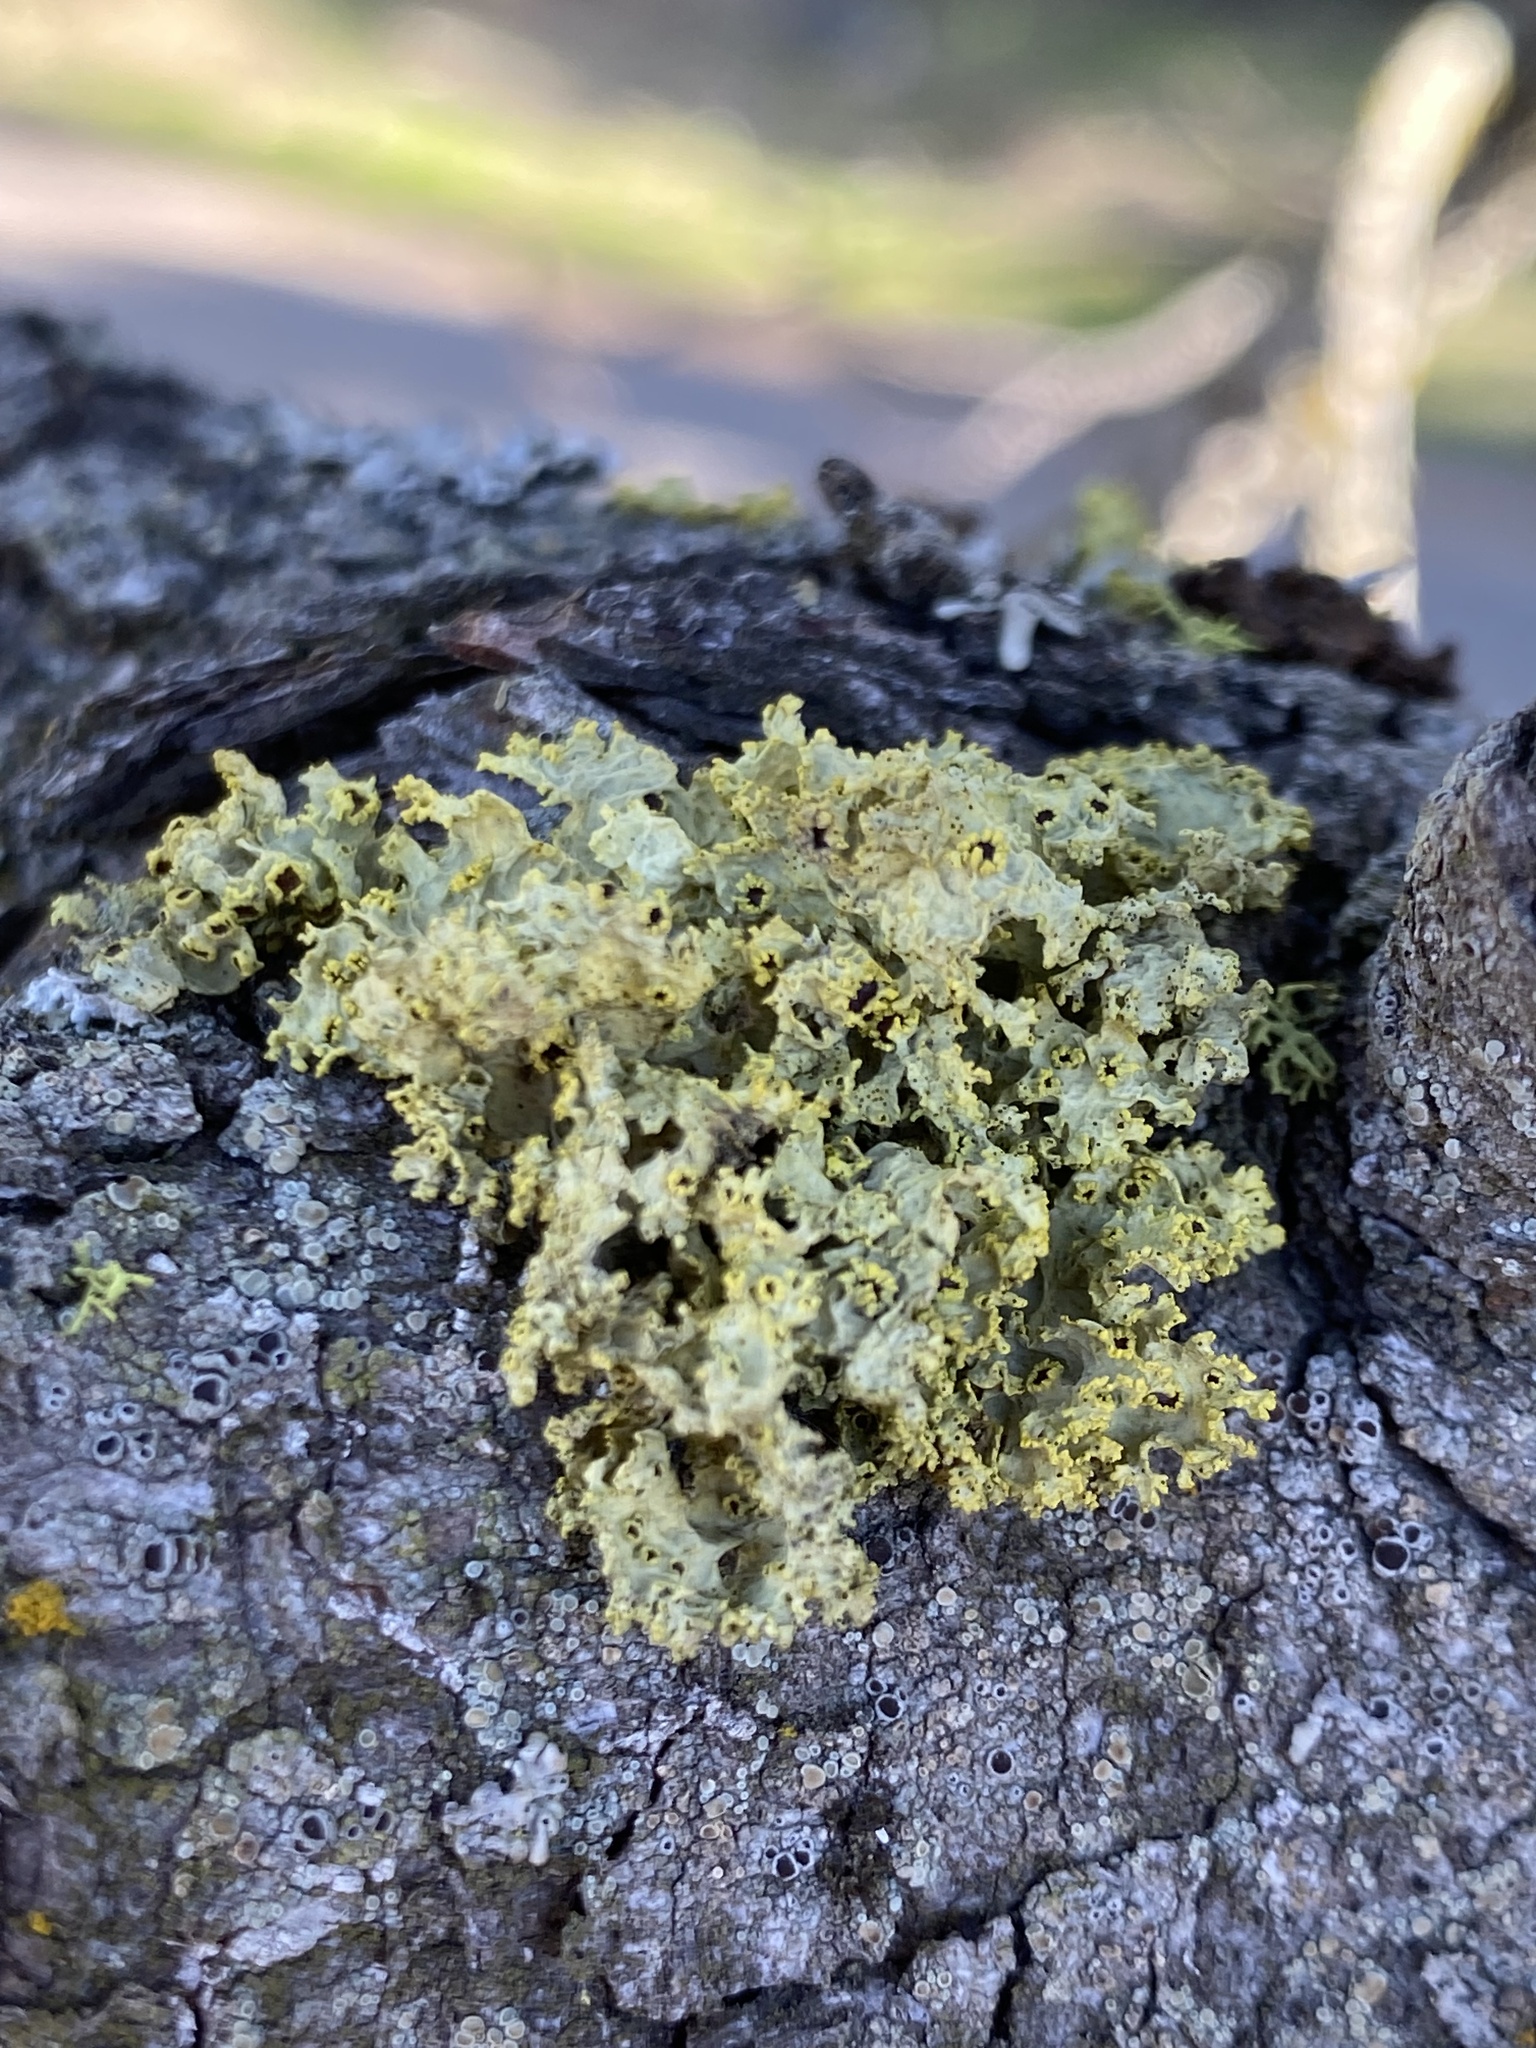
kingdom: Fungi
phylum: Ascomycota
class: Lecanoromycetes
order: Lecanorales
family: Parmeliaceae
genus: Vulpicida
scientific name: Vulpicida canadensis
